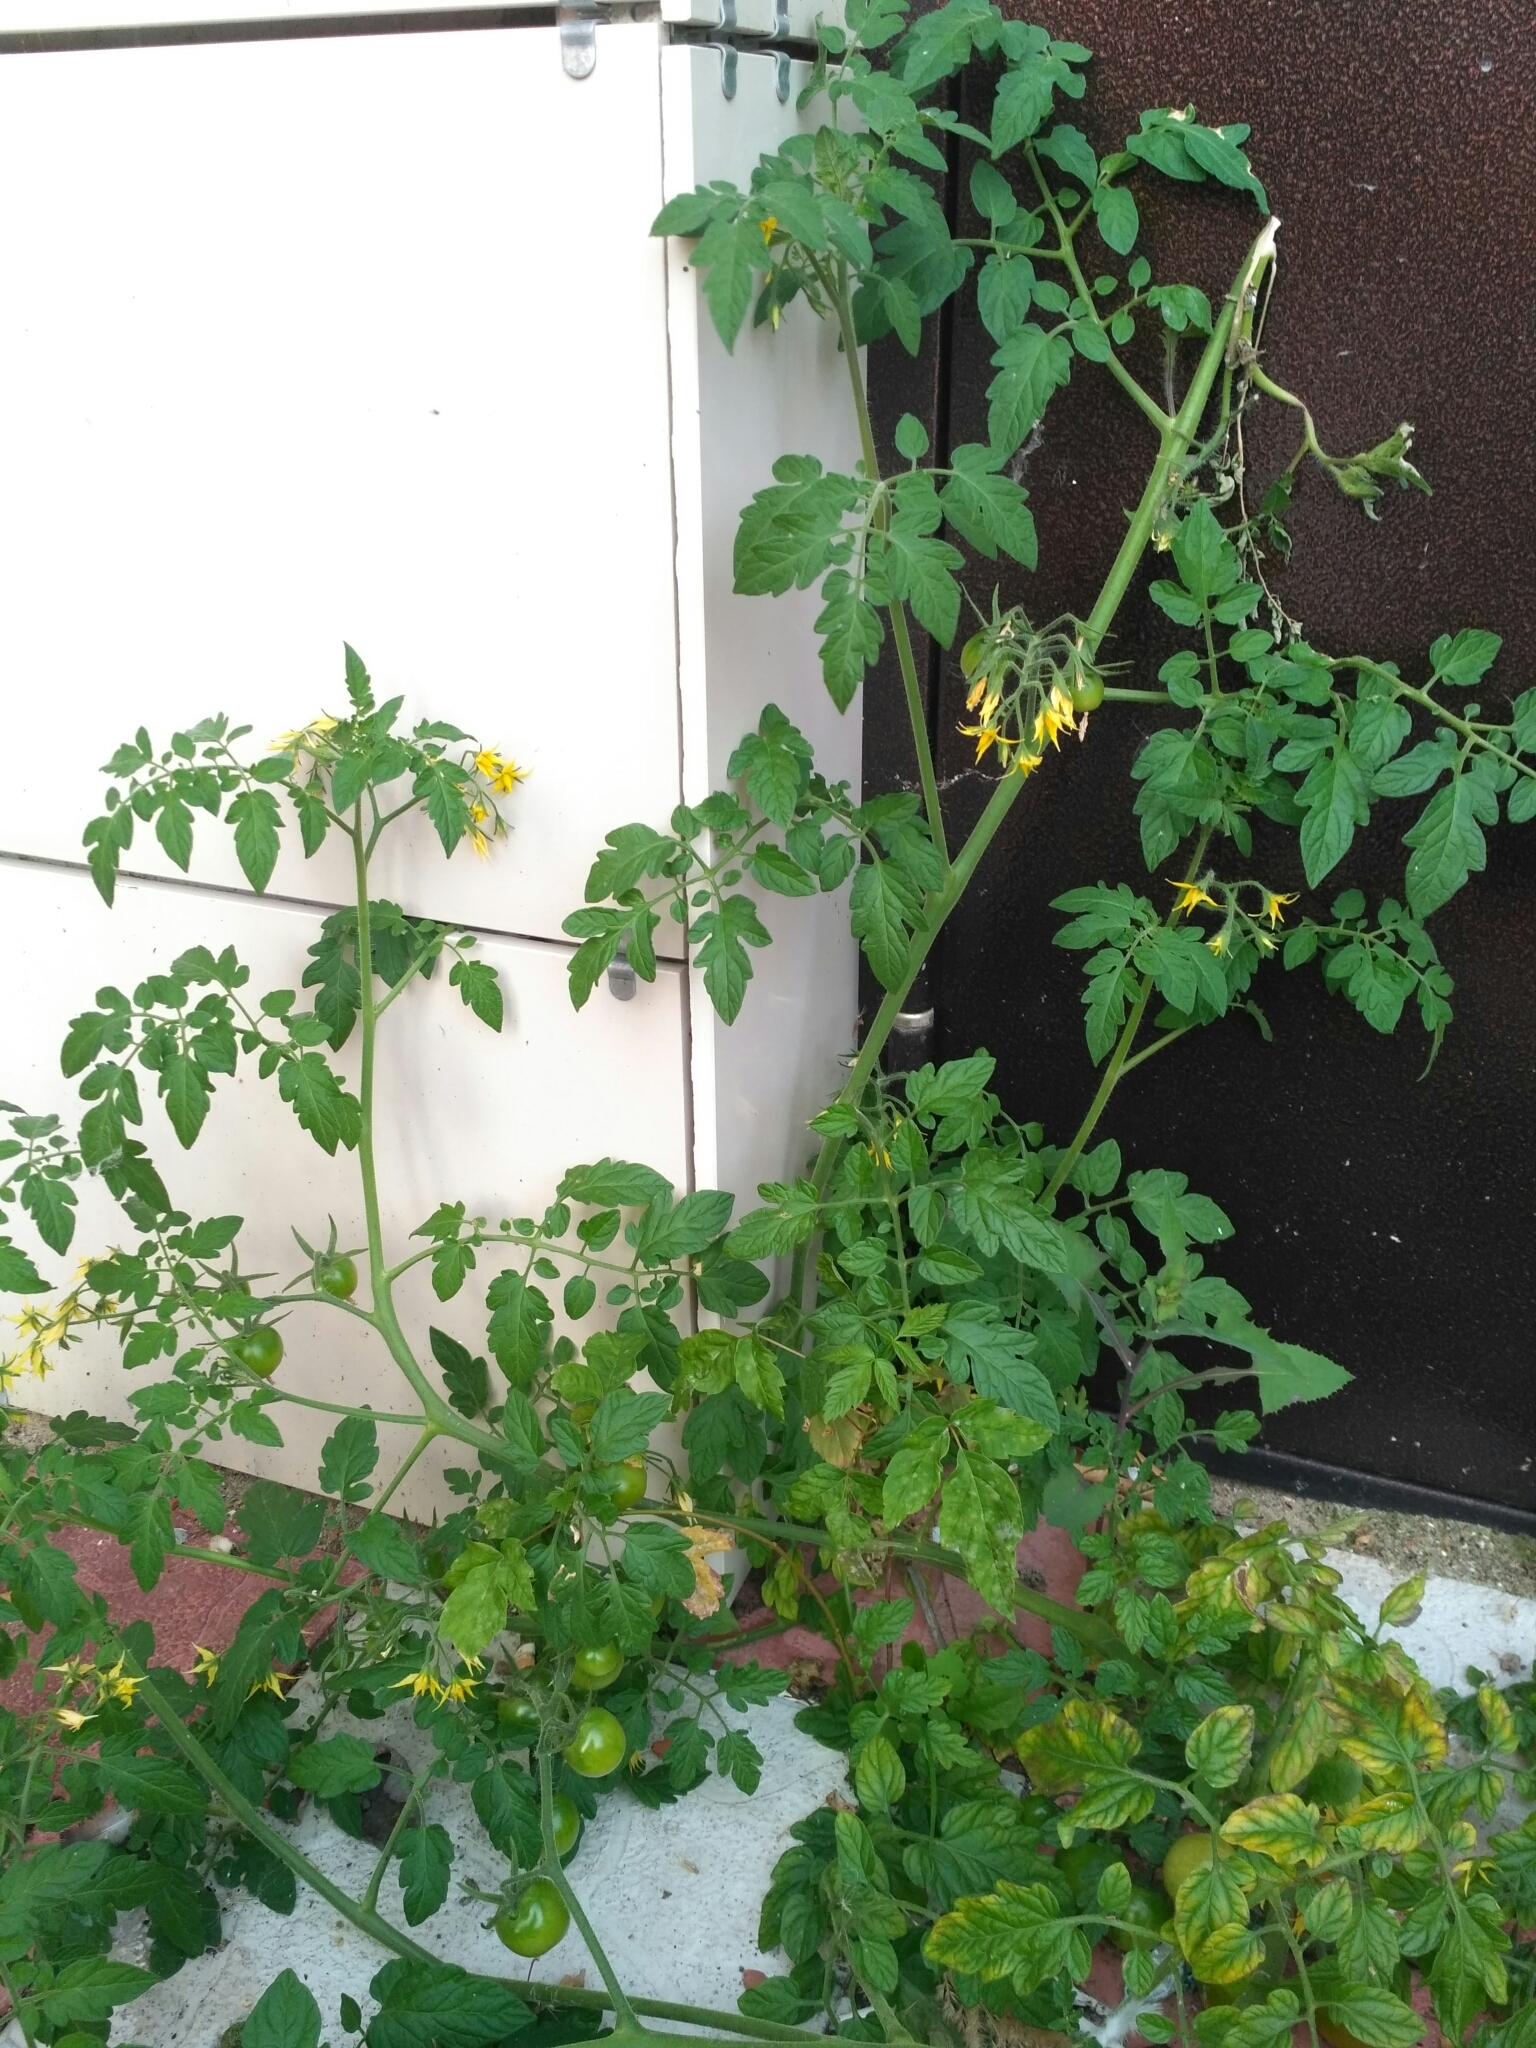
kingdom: Plantae
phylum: Tracheophyta
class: Magnoliopsida
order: Solanales
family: Solanaceae
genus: Solanum
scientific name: Solanum lycopersicum
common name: Garden tomato
